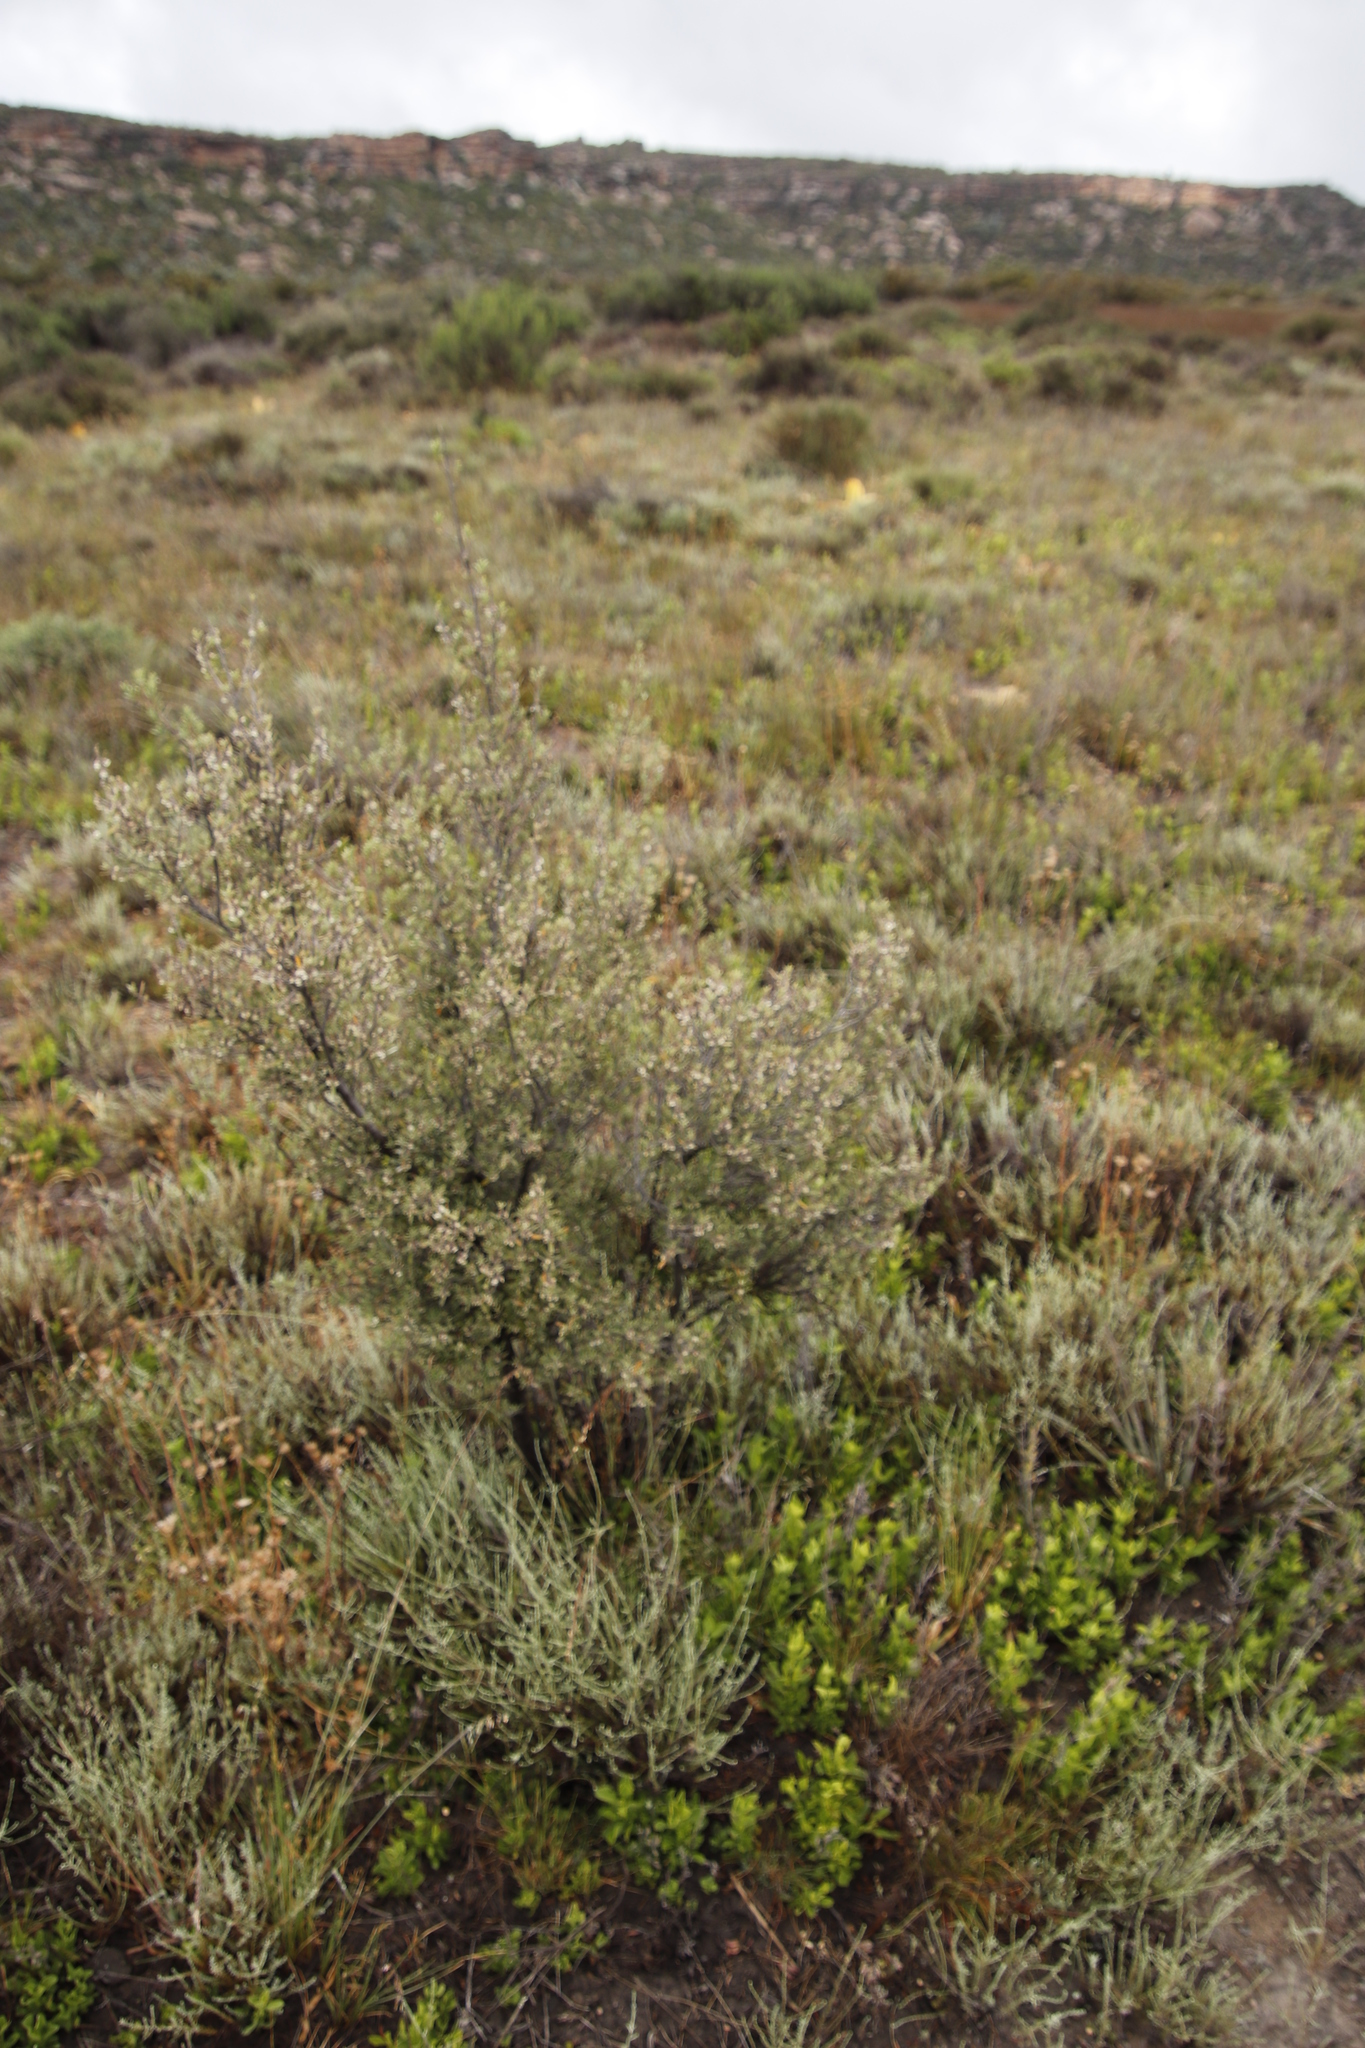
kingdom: Plantae
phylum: Tracheophyta
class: Magnoliopsida
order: Ericales
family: Ebenaceae
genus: Diospyros
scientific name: Diospyros glabra
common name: Fynbos star apple
